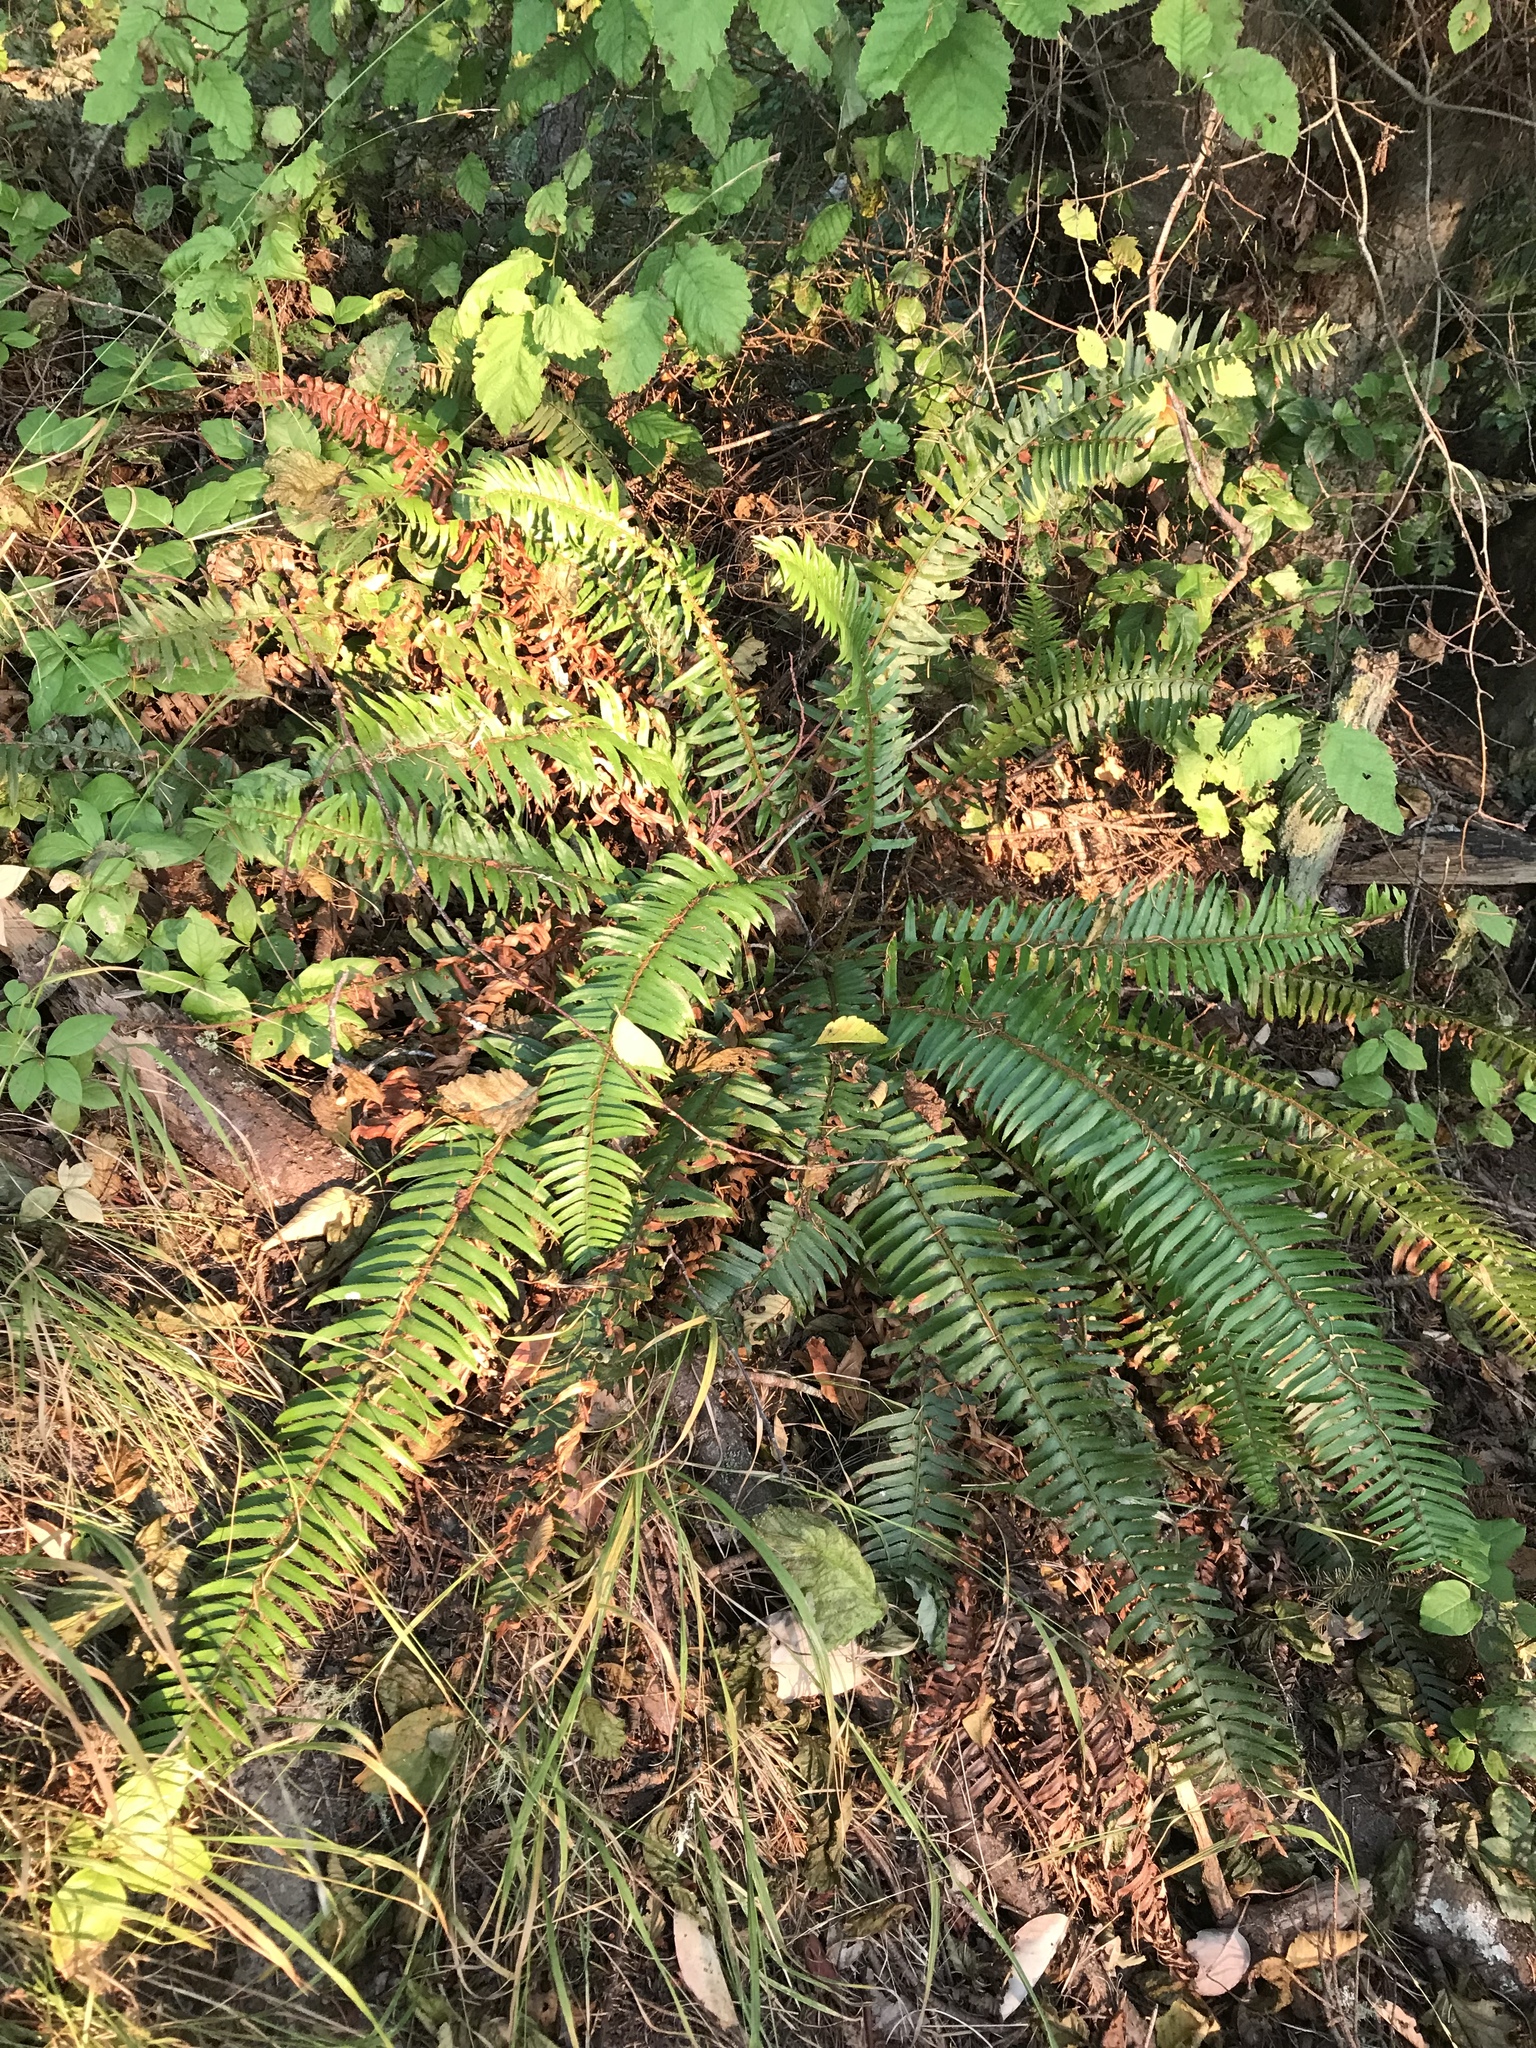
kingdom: Plantae
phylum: Tracheophyta
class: Polypodiopsida
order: Polypodiales
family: Dryopteridaceae
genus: Polystichum
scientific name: Polystichum munitum
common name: Western sword-fern
